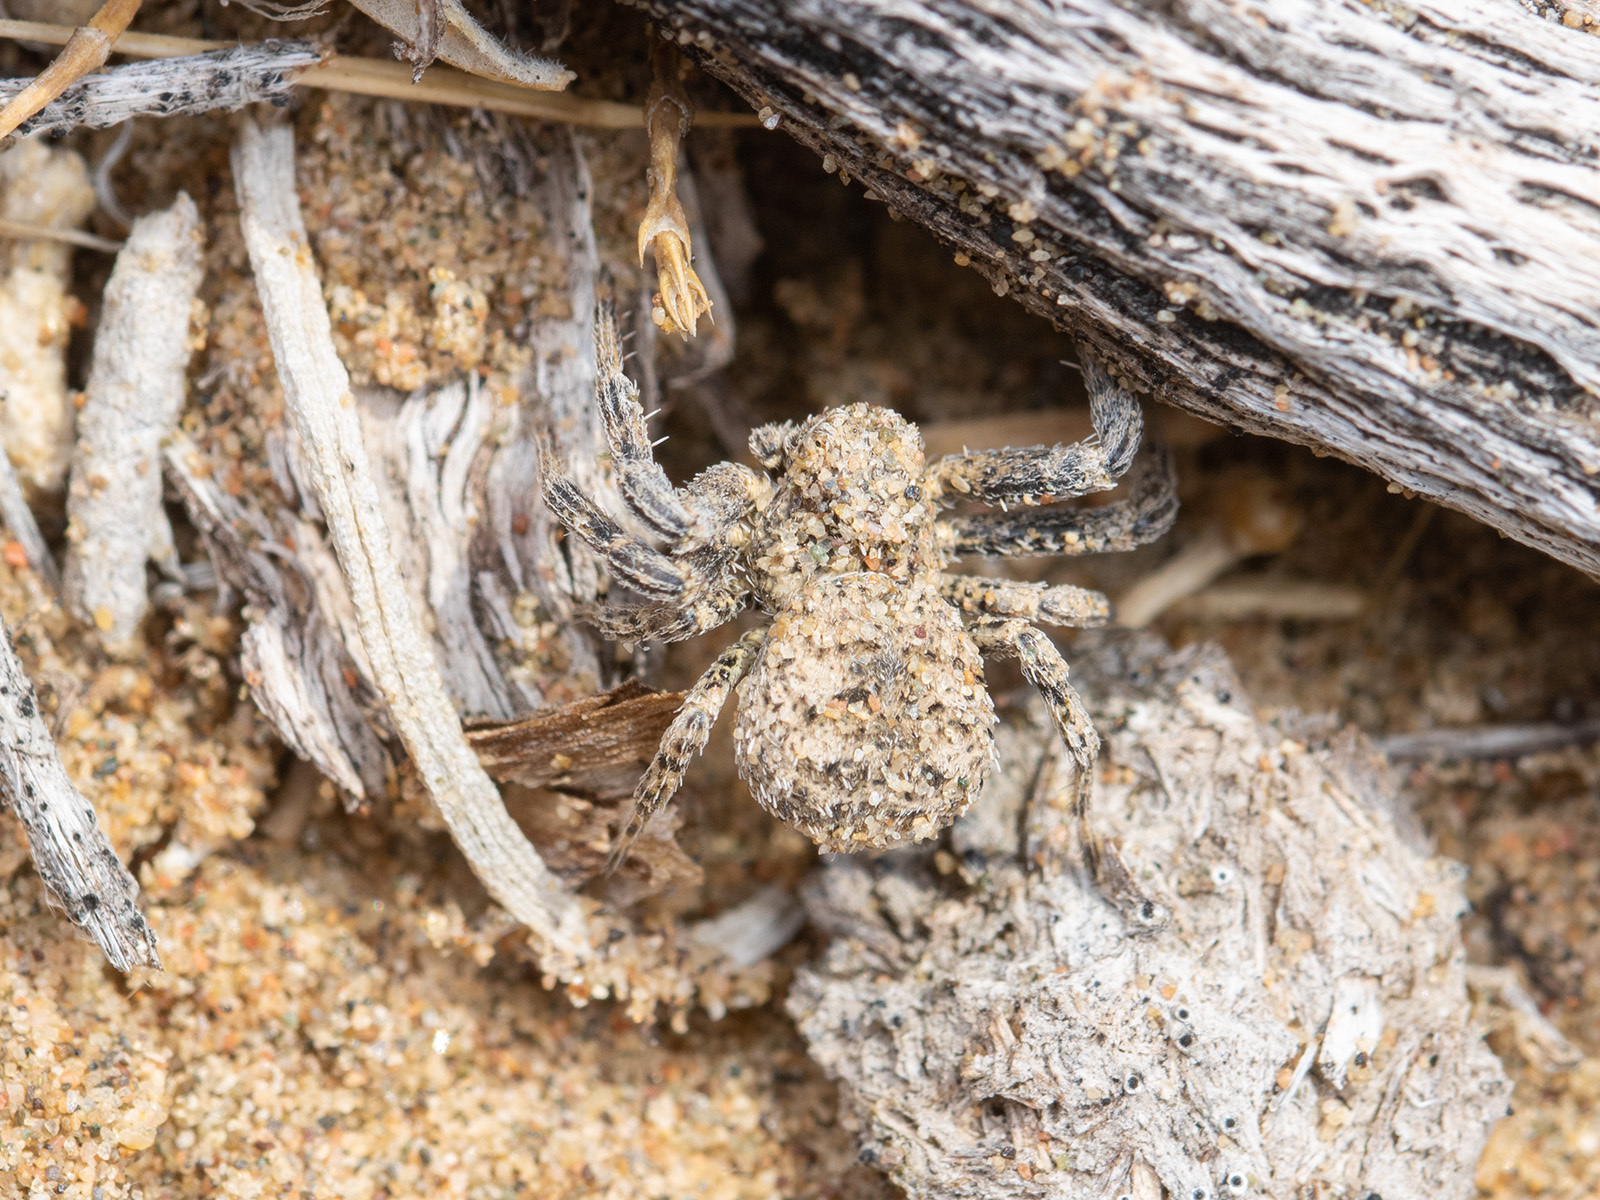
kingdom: Animalia
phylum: Arthropoda
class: Arachnida
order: Araneae
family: Thomisidae
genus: Ozyptila
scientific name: Ozyptila lugubris
